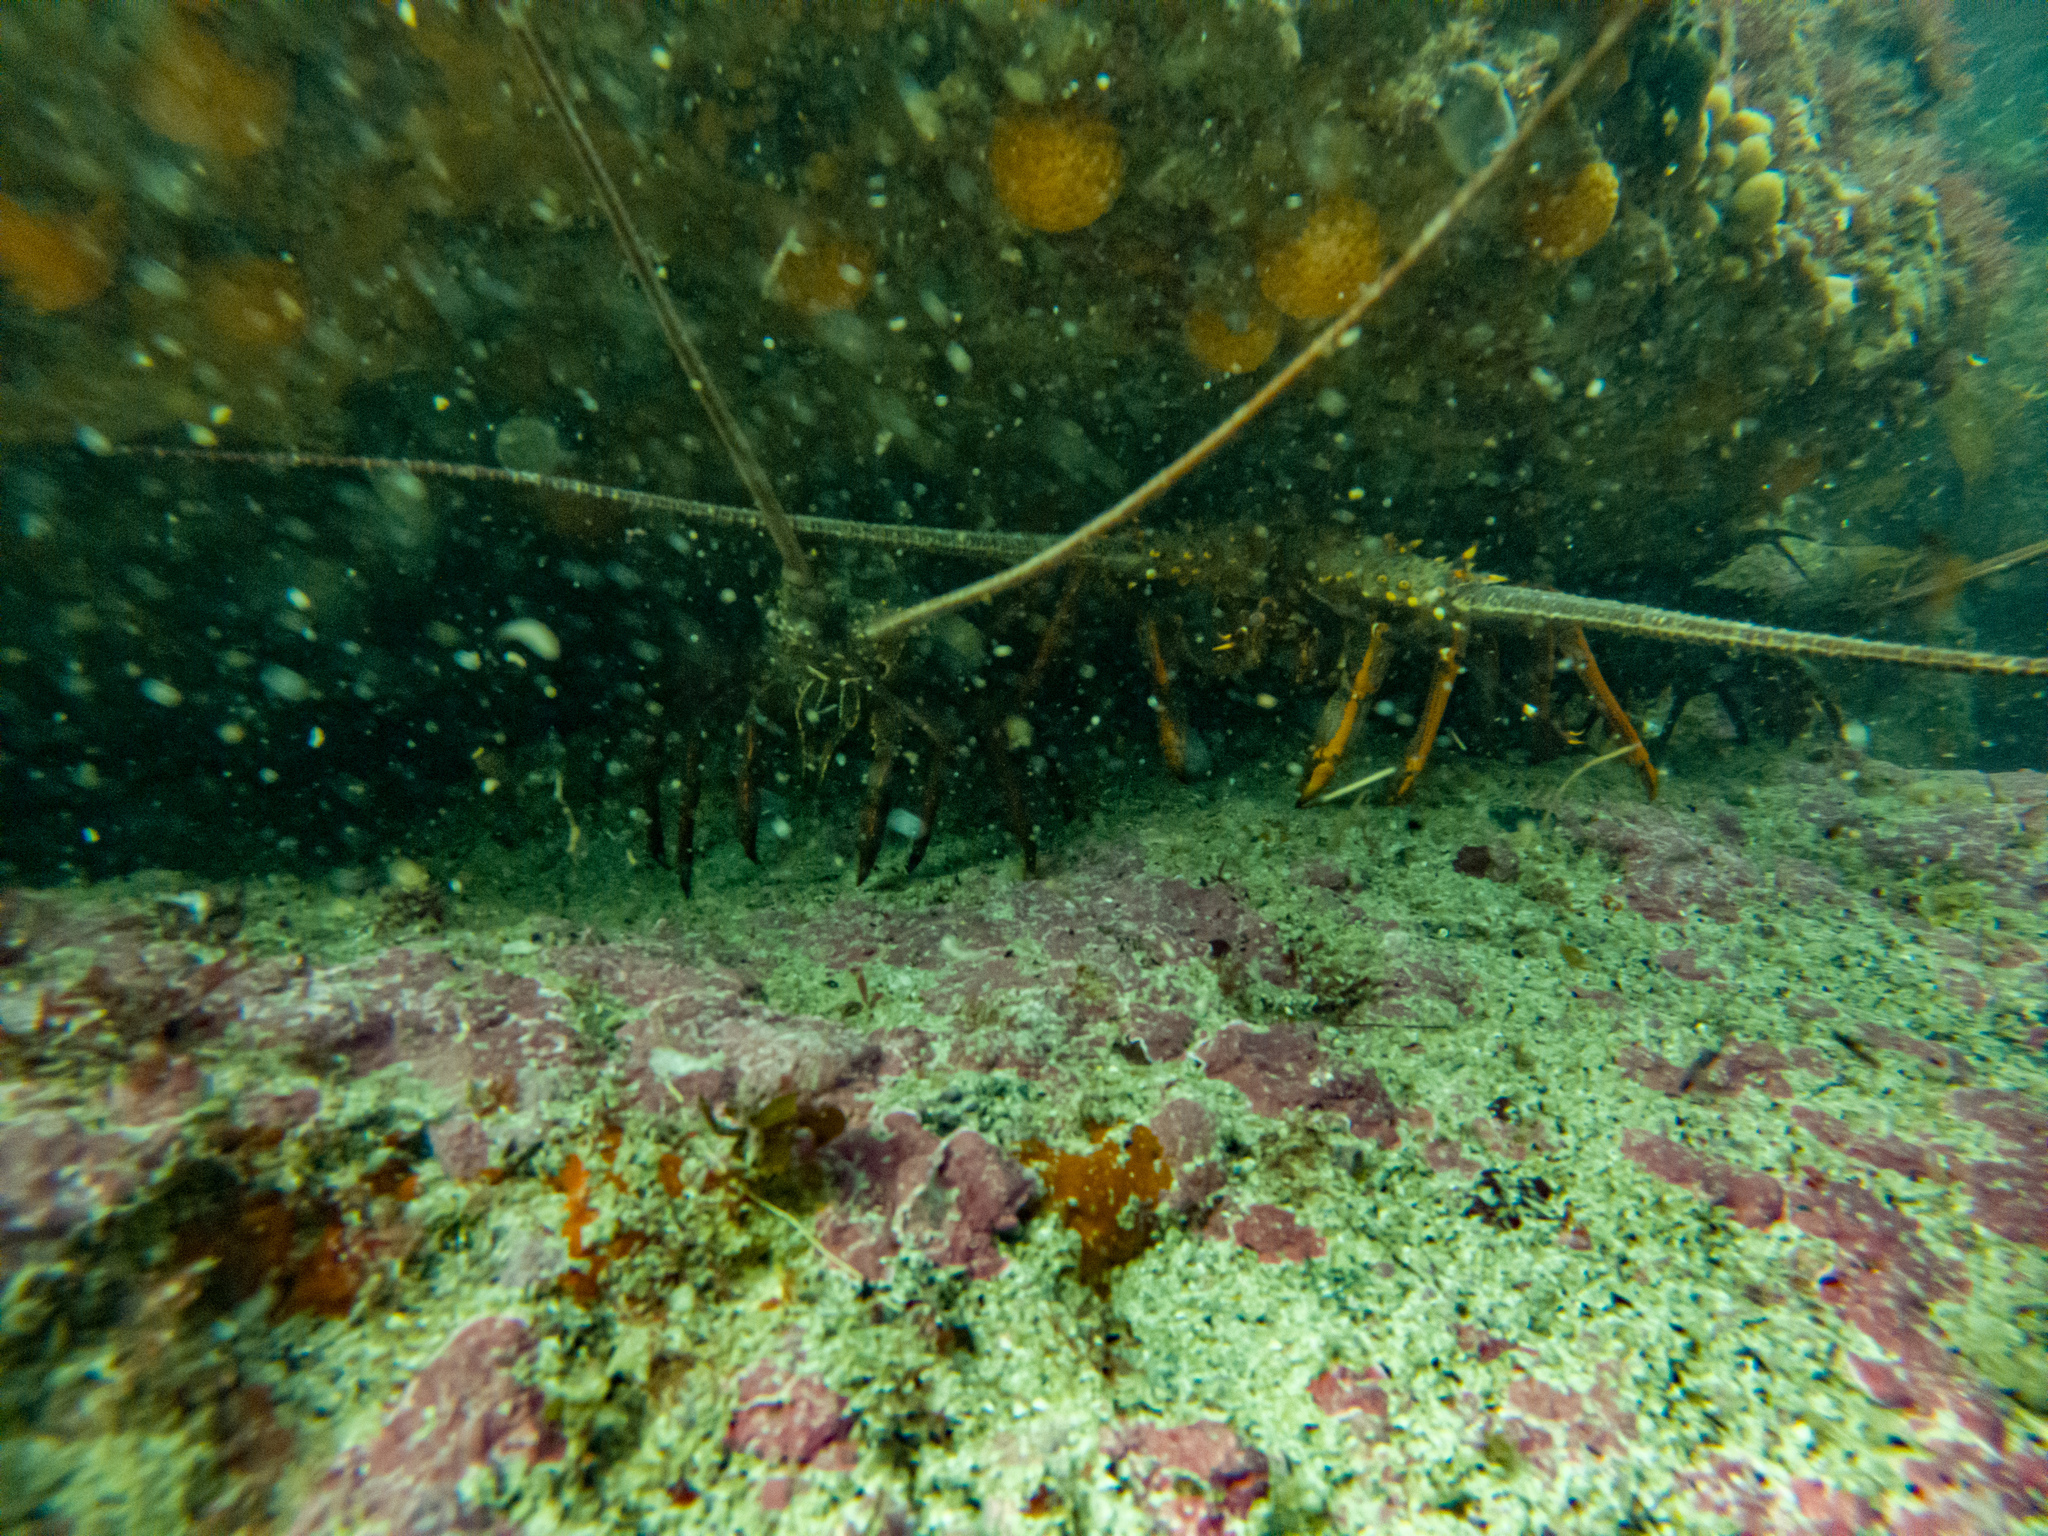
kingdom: Animalia
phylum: Arthropoda
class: Malacostraca
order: Decapoda
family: Palinuridae
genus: Sagmariasus
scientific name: Sagmariasus verreauxi
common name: Green rock lobster
